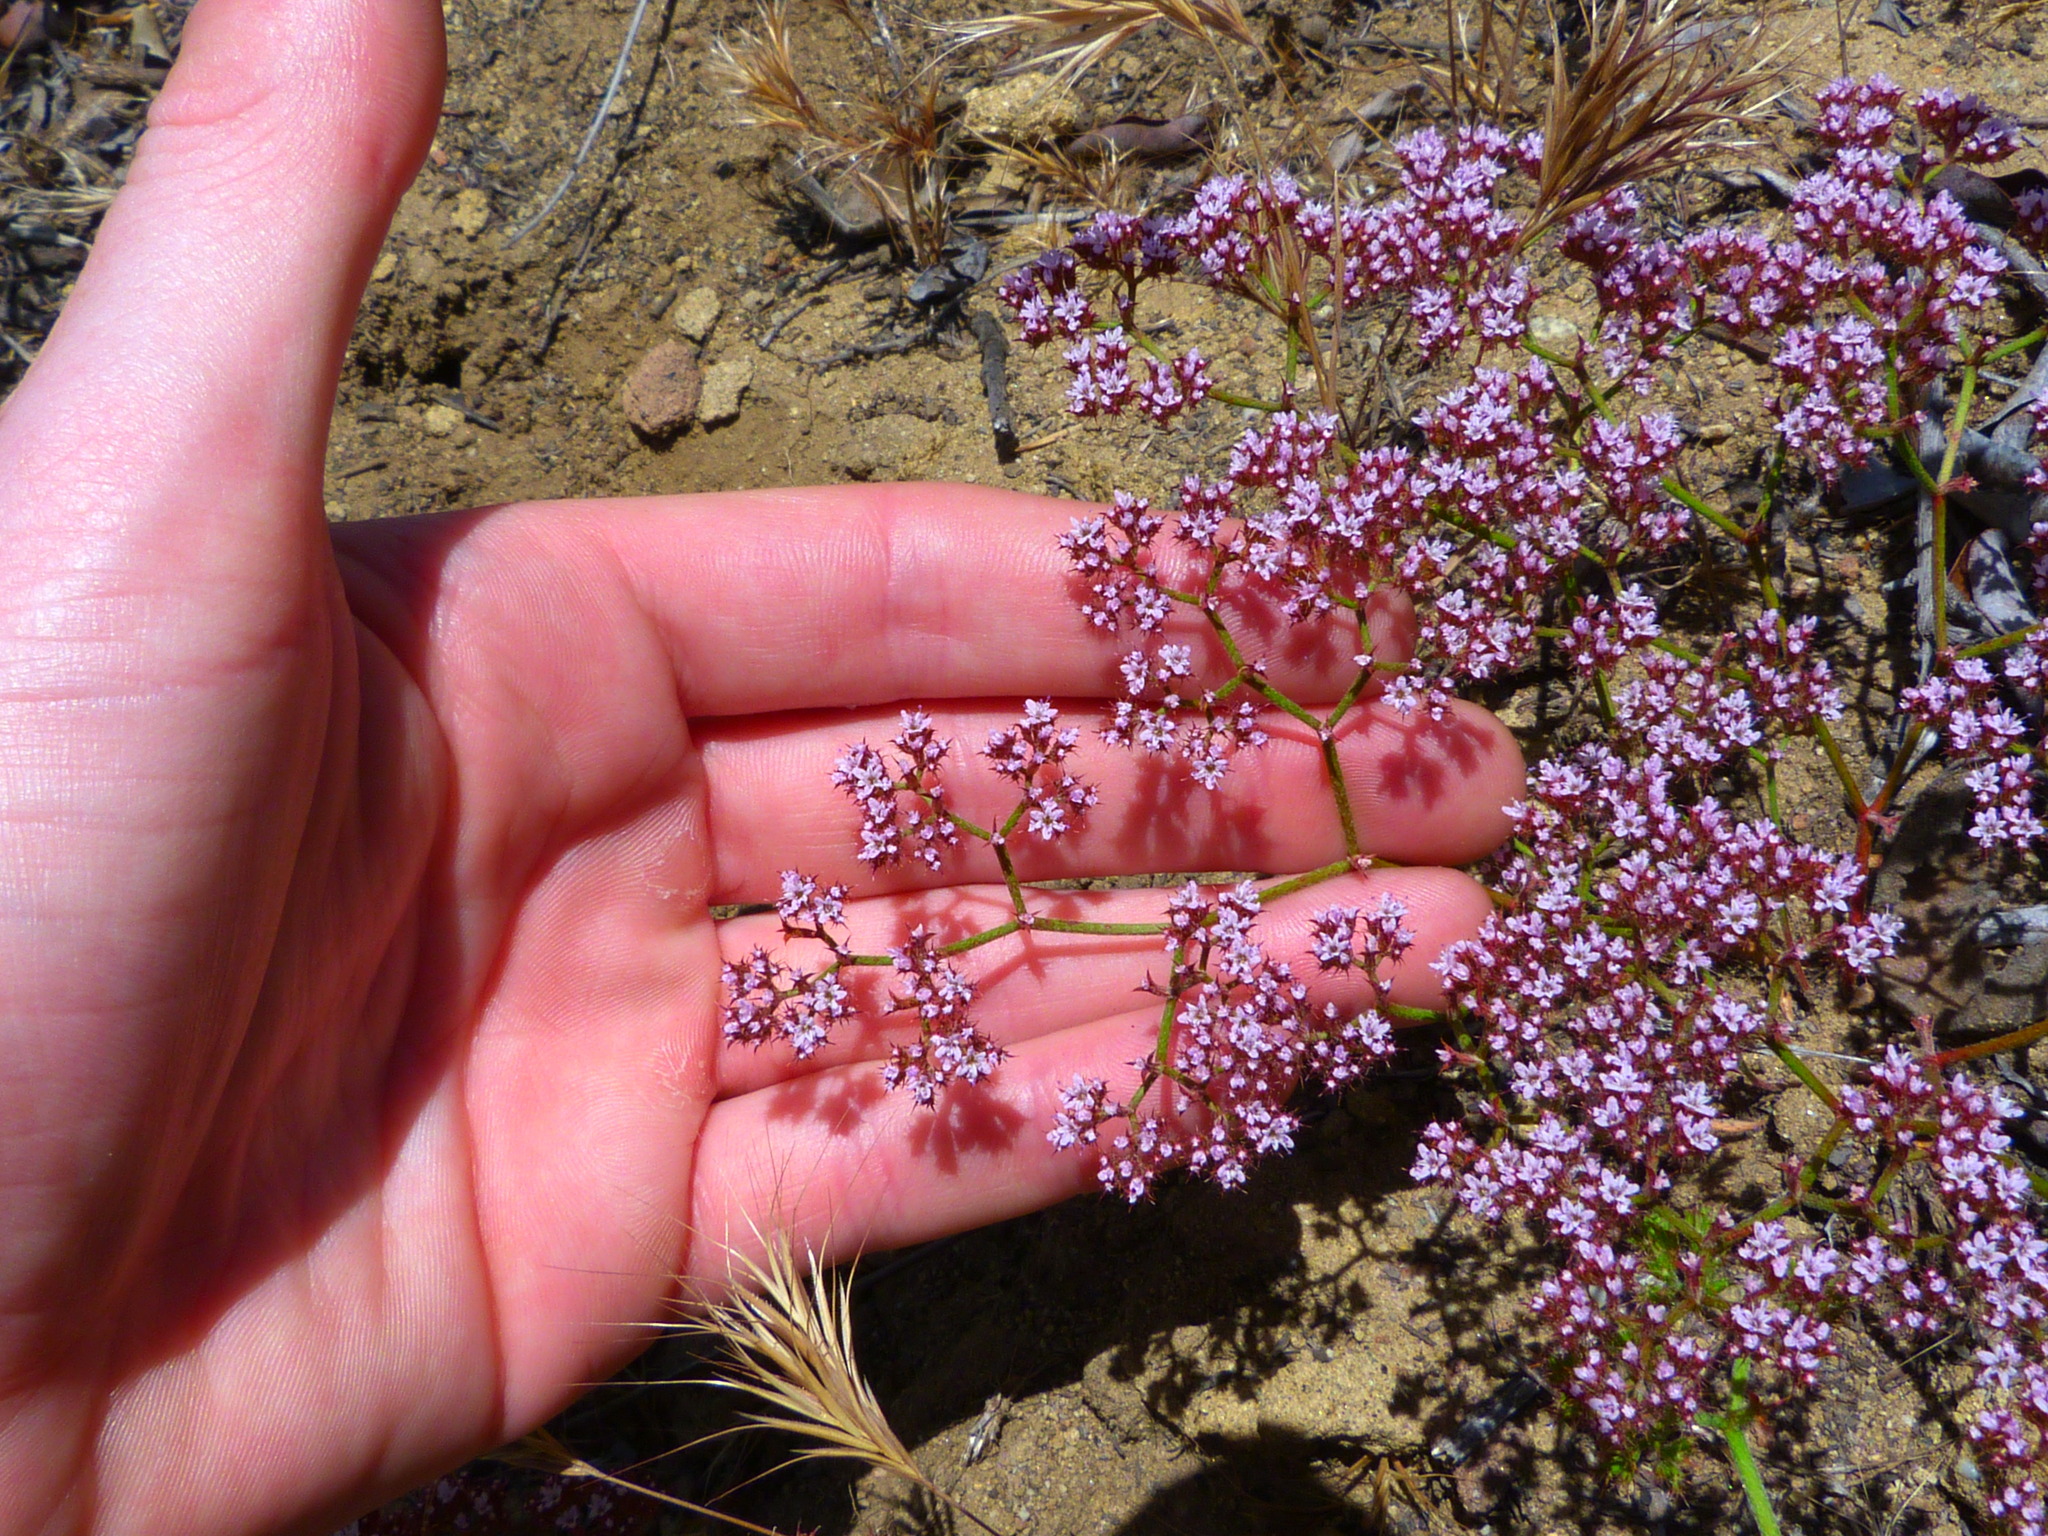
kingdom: Plantae
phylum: Tracheophyta
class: Magnoliopsida
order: Caryophyllales
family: Polygonaceae
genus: Chorizanthe
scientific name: Chorizanthe staticoides
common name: Turkish rugging
